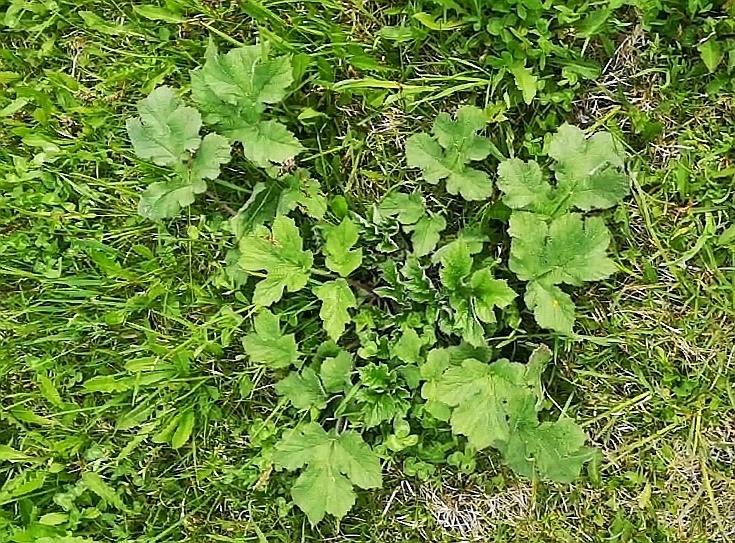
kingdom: Plantae
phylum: Tracheophyta
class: Magnoliopsida
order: Apiales
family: Apiaceae
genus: Heracleum
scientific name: Heracleum sphondylium
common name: Hogweed
